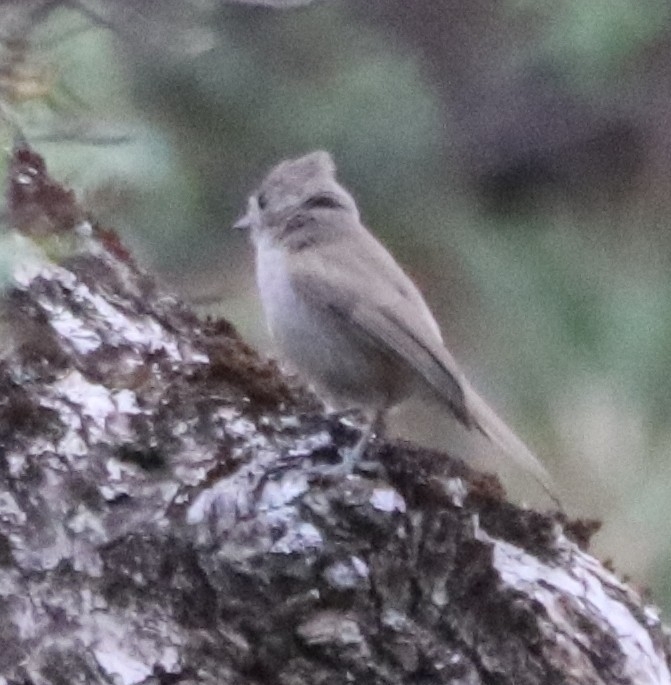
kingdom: Animalia
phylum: Chordata
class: Aves
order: Passeriformes
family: Paridae
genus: Baeolophus
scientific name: Baeolophus inornatus
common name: Oak titmouse
